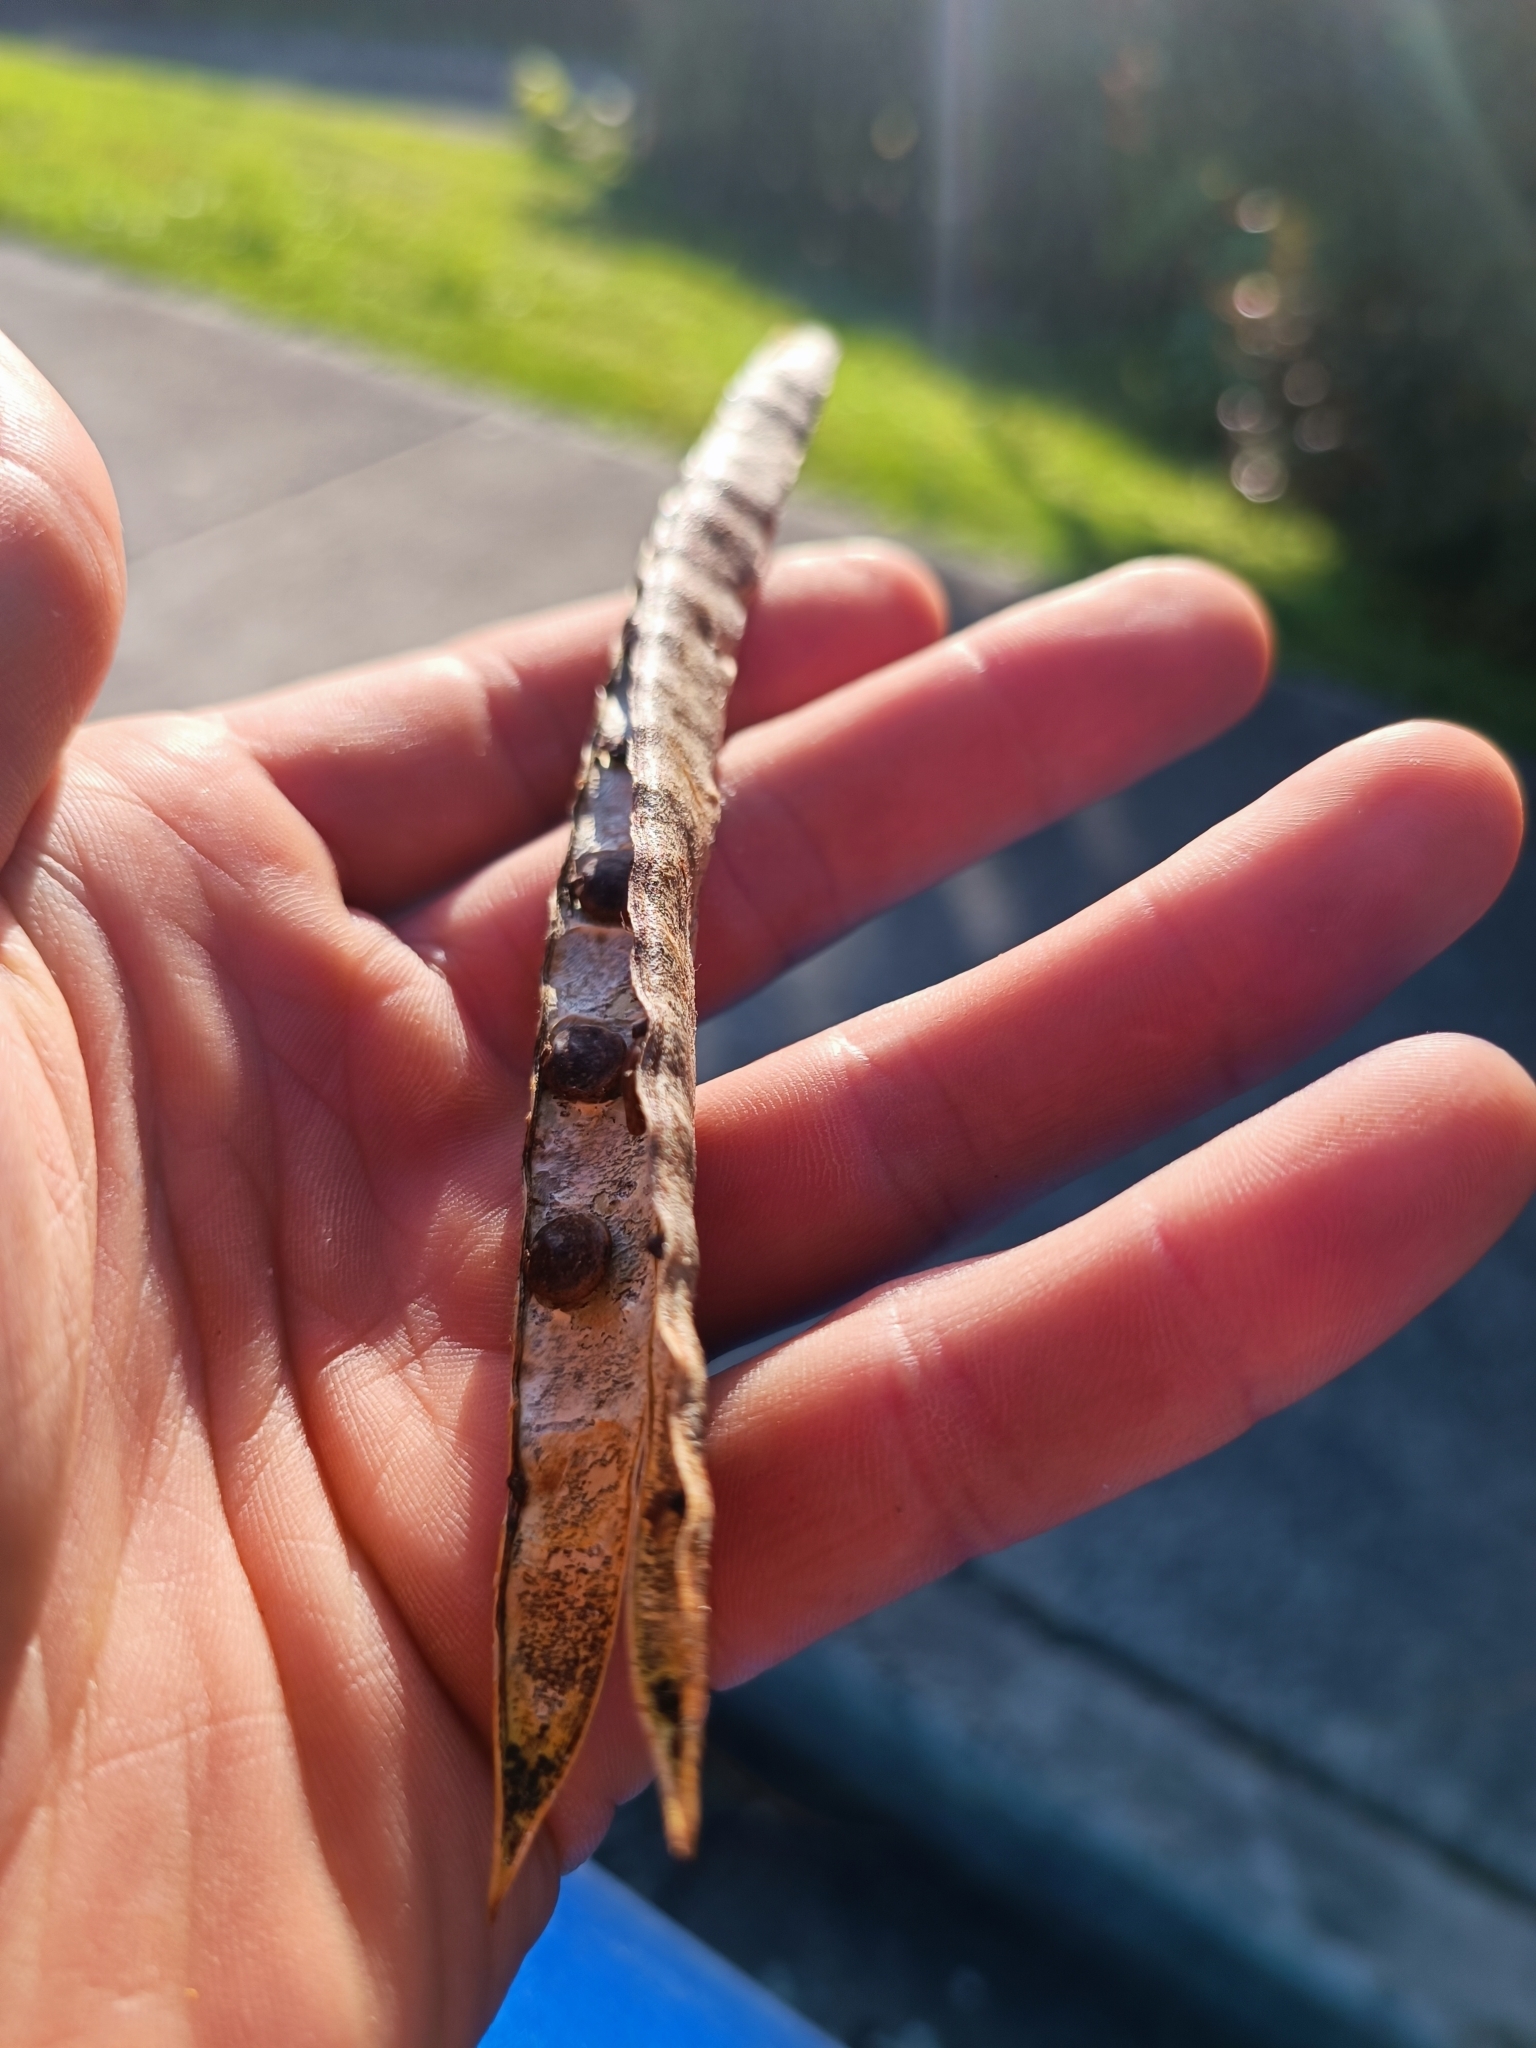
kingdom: Plantae
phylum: Tracheophyta
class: Magnoliopsida
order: Fabales
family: Fabaceae
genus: Dipogon
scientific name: Dipogon lignosus
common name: Okie bean
